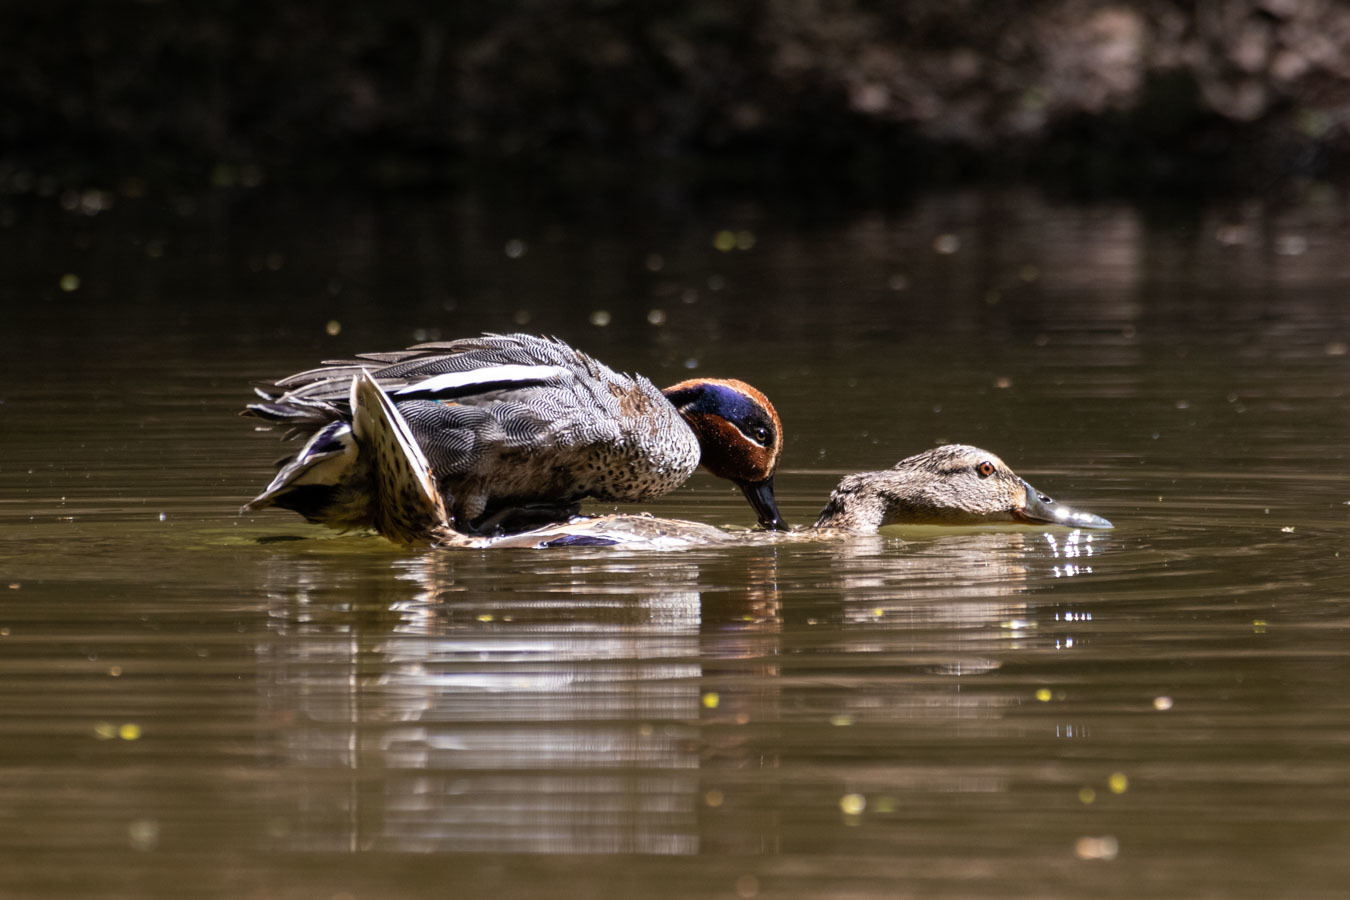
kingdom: Animalia
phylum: Chordata
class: Aves
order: Anseriformes
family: Anatidae
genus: Anas
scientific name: Anas crecca
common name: Eurasian teal
